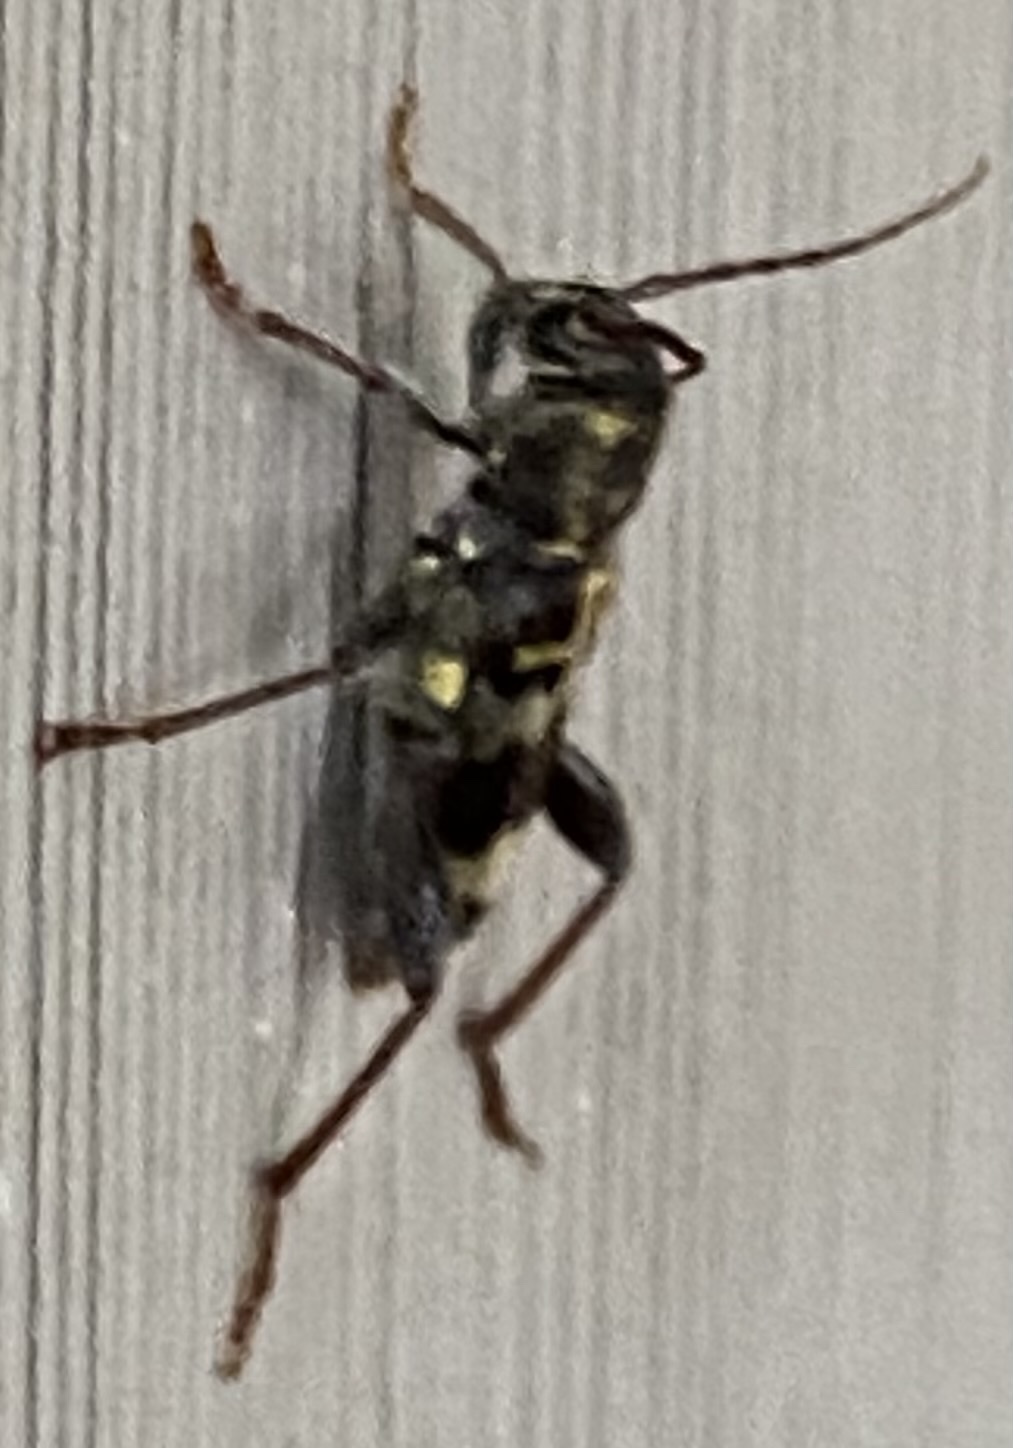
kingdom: Animalia
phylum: Arthropoda
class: Insecta
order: Coleoptera
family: Cerambycidae
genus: Xylotrechus
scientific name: Xylotrechus colonus
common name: Long-horned beetle
